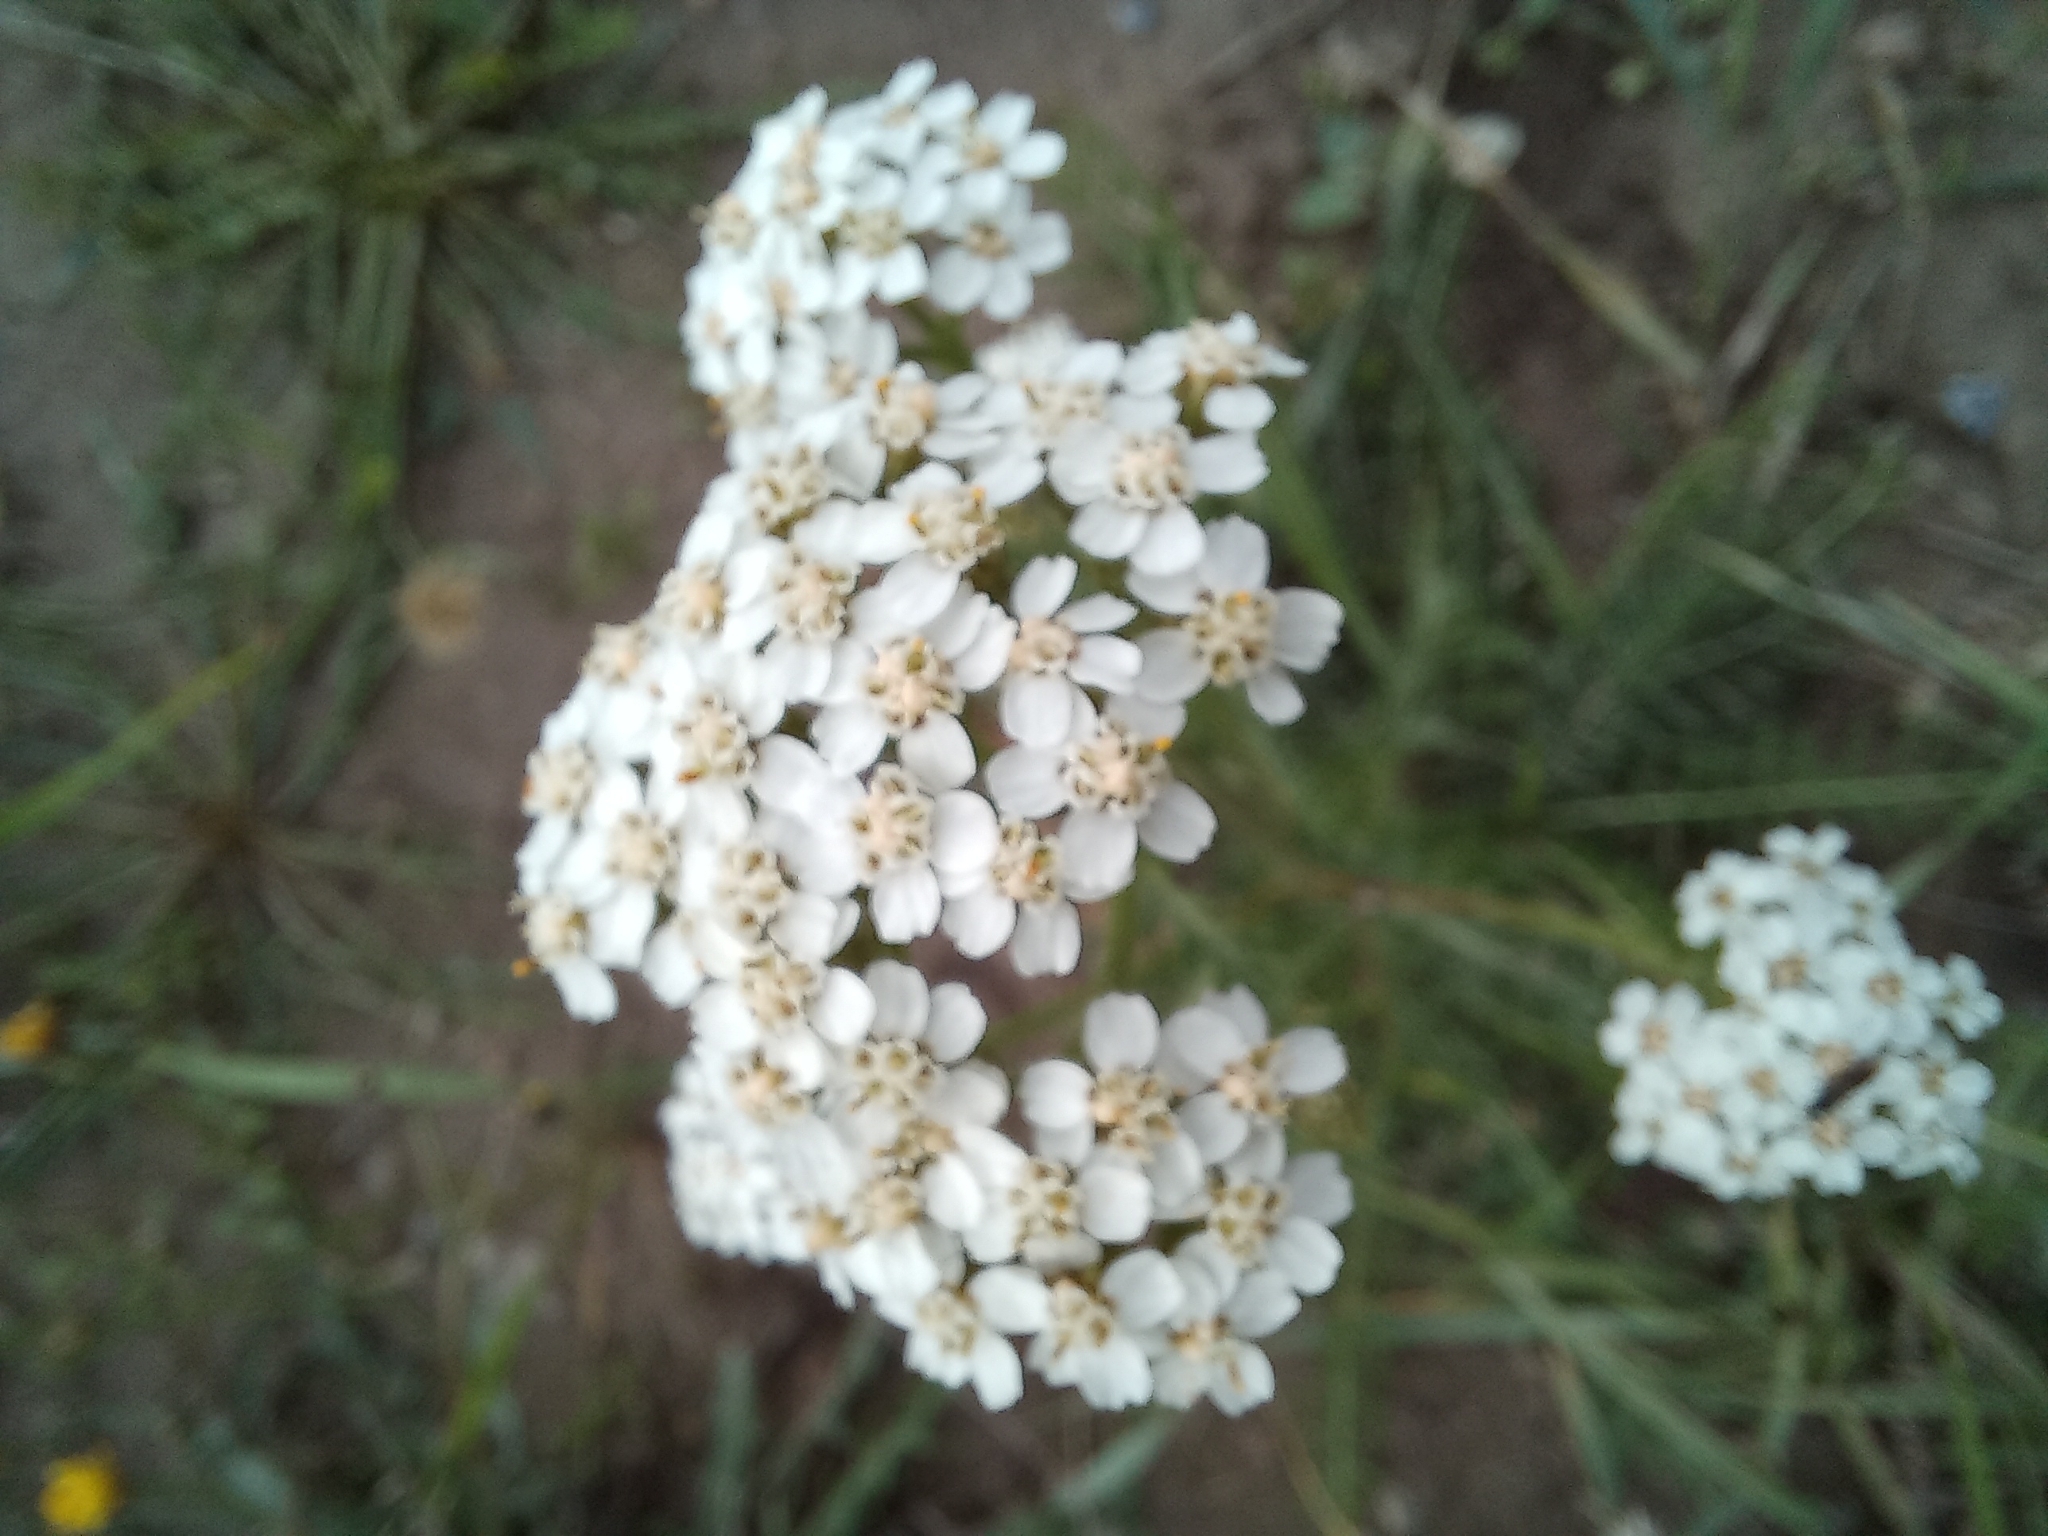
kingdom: Plantae
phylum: Tracheophyta
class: Magnoliopsida
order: Asterales
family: Asteraceae
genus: Achillea
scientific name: Achillea millefolium
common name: Yarrow
